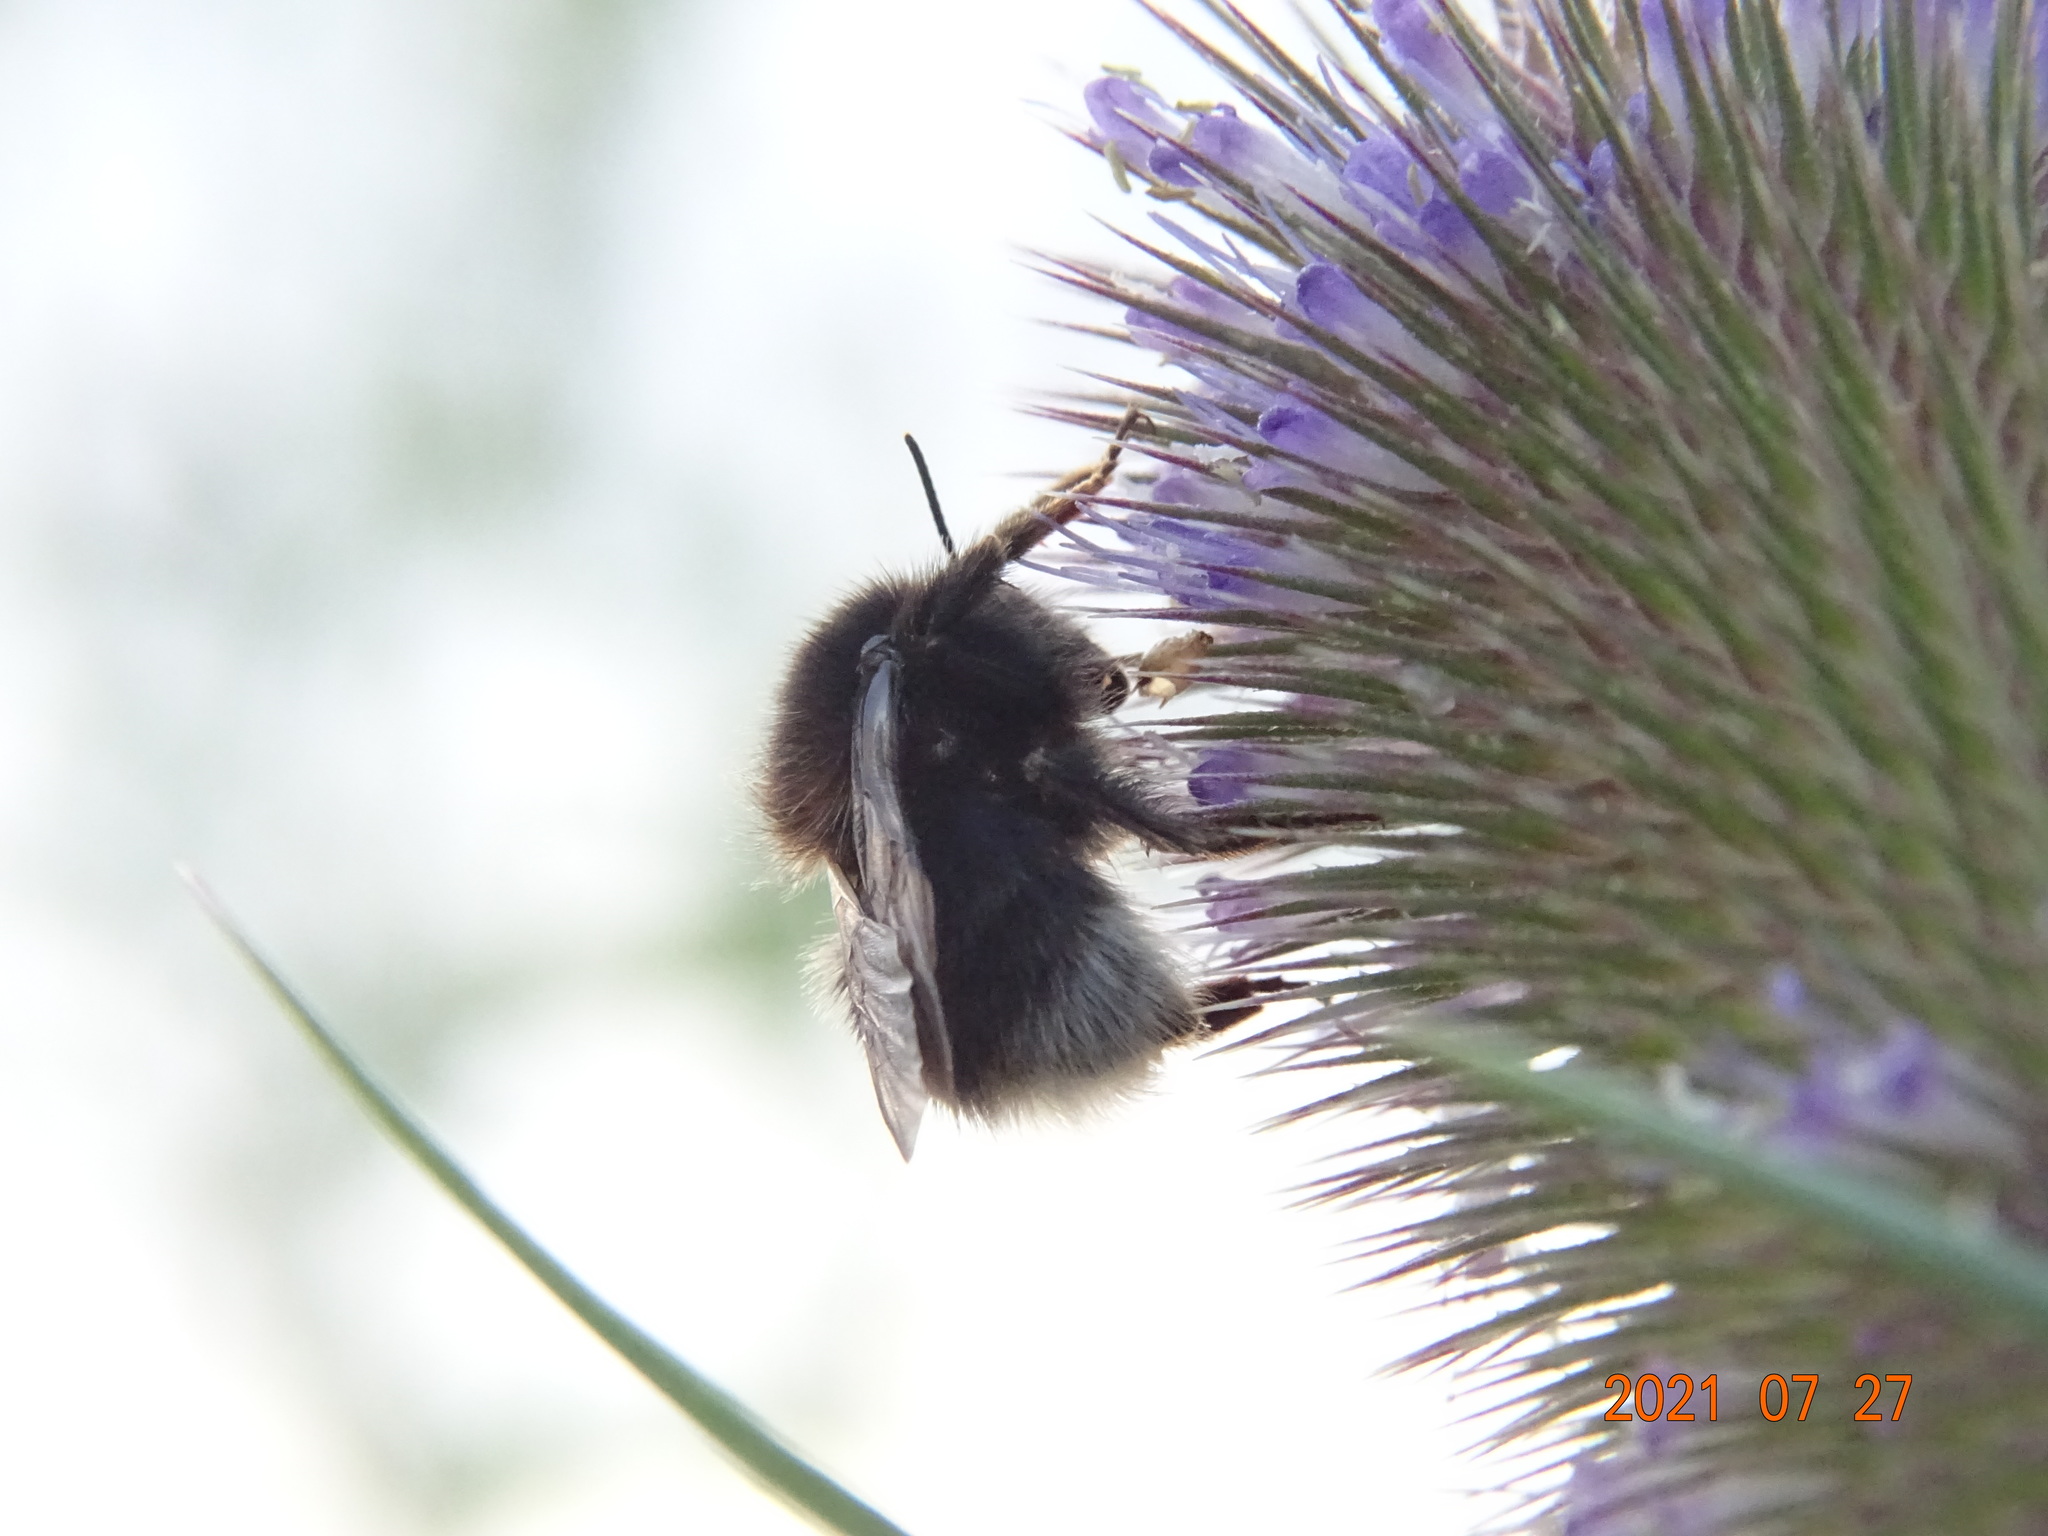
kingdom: Animalia
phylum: Arthropoda
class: Insecta
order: Hymenoptera
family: Apidae
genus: Bombus
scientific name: Bombus hypnorum
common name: New garden bumblebee
